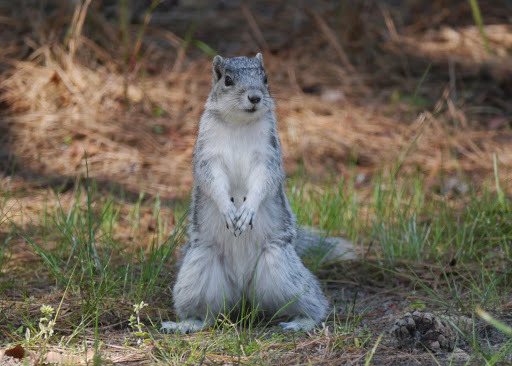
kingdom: Animalia
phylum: Chordata
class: Mammalia
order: Rodentia
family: Sciuridae
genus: Sciurus
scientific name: Sciurus niger
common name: Fox squirrel
